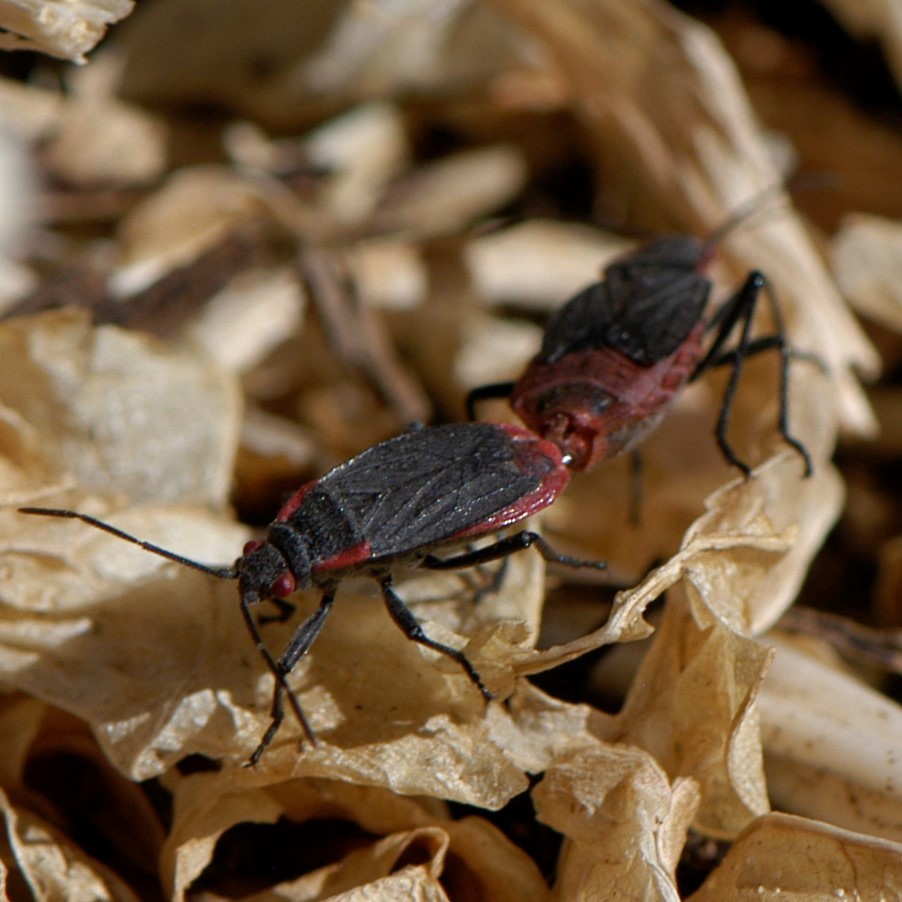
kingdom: Animalia
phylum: Arthropoda
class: Insecta
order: Hemiptera
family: Rhopalidae
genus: Jadera
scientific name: Jadera haematoloma
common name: Red-shouldered bug
